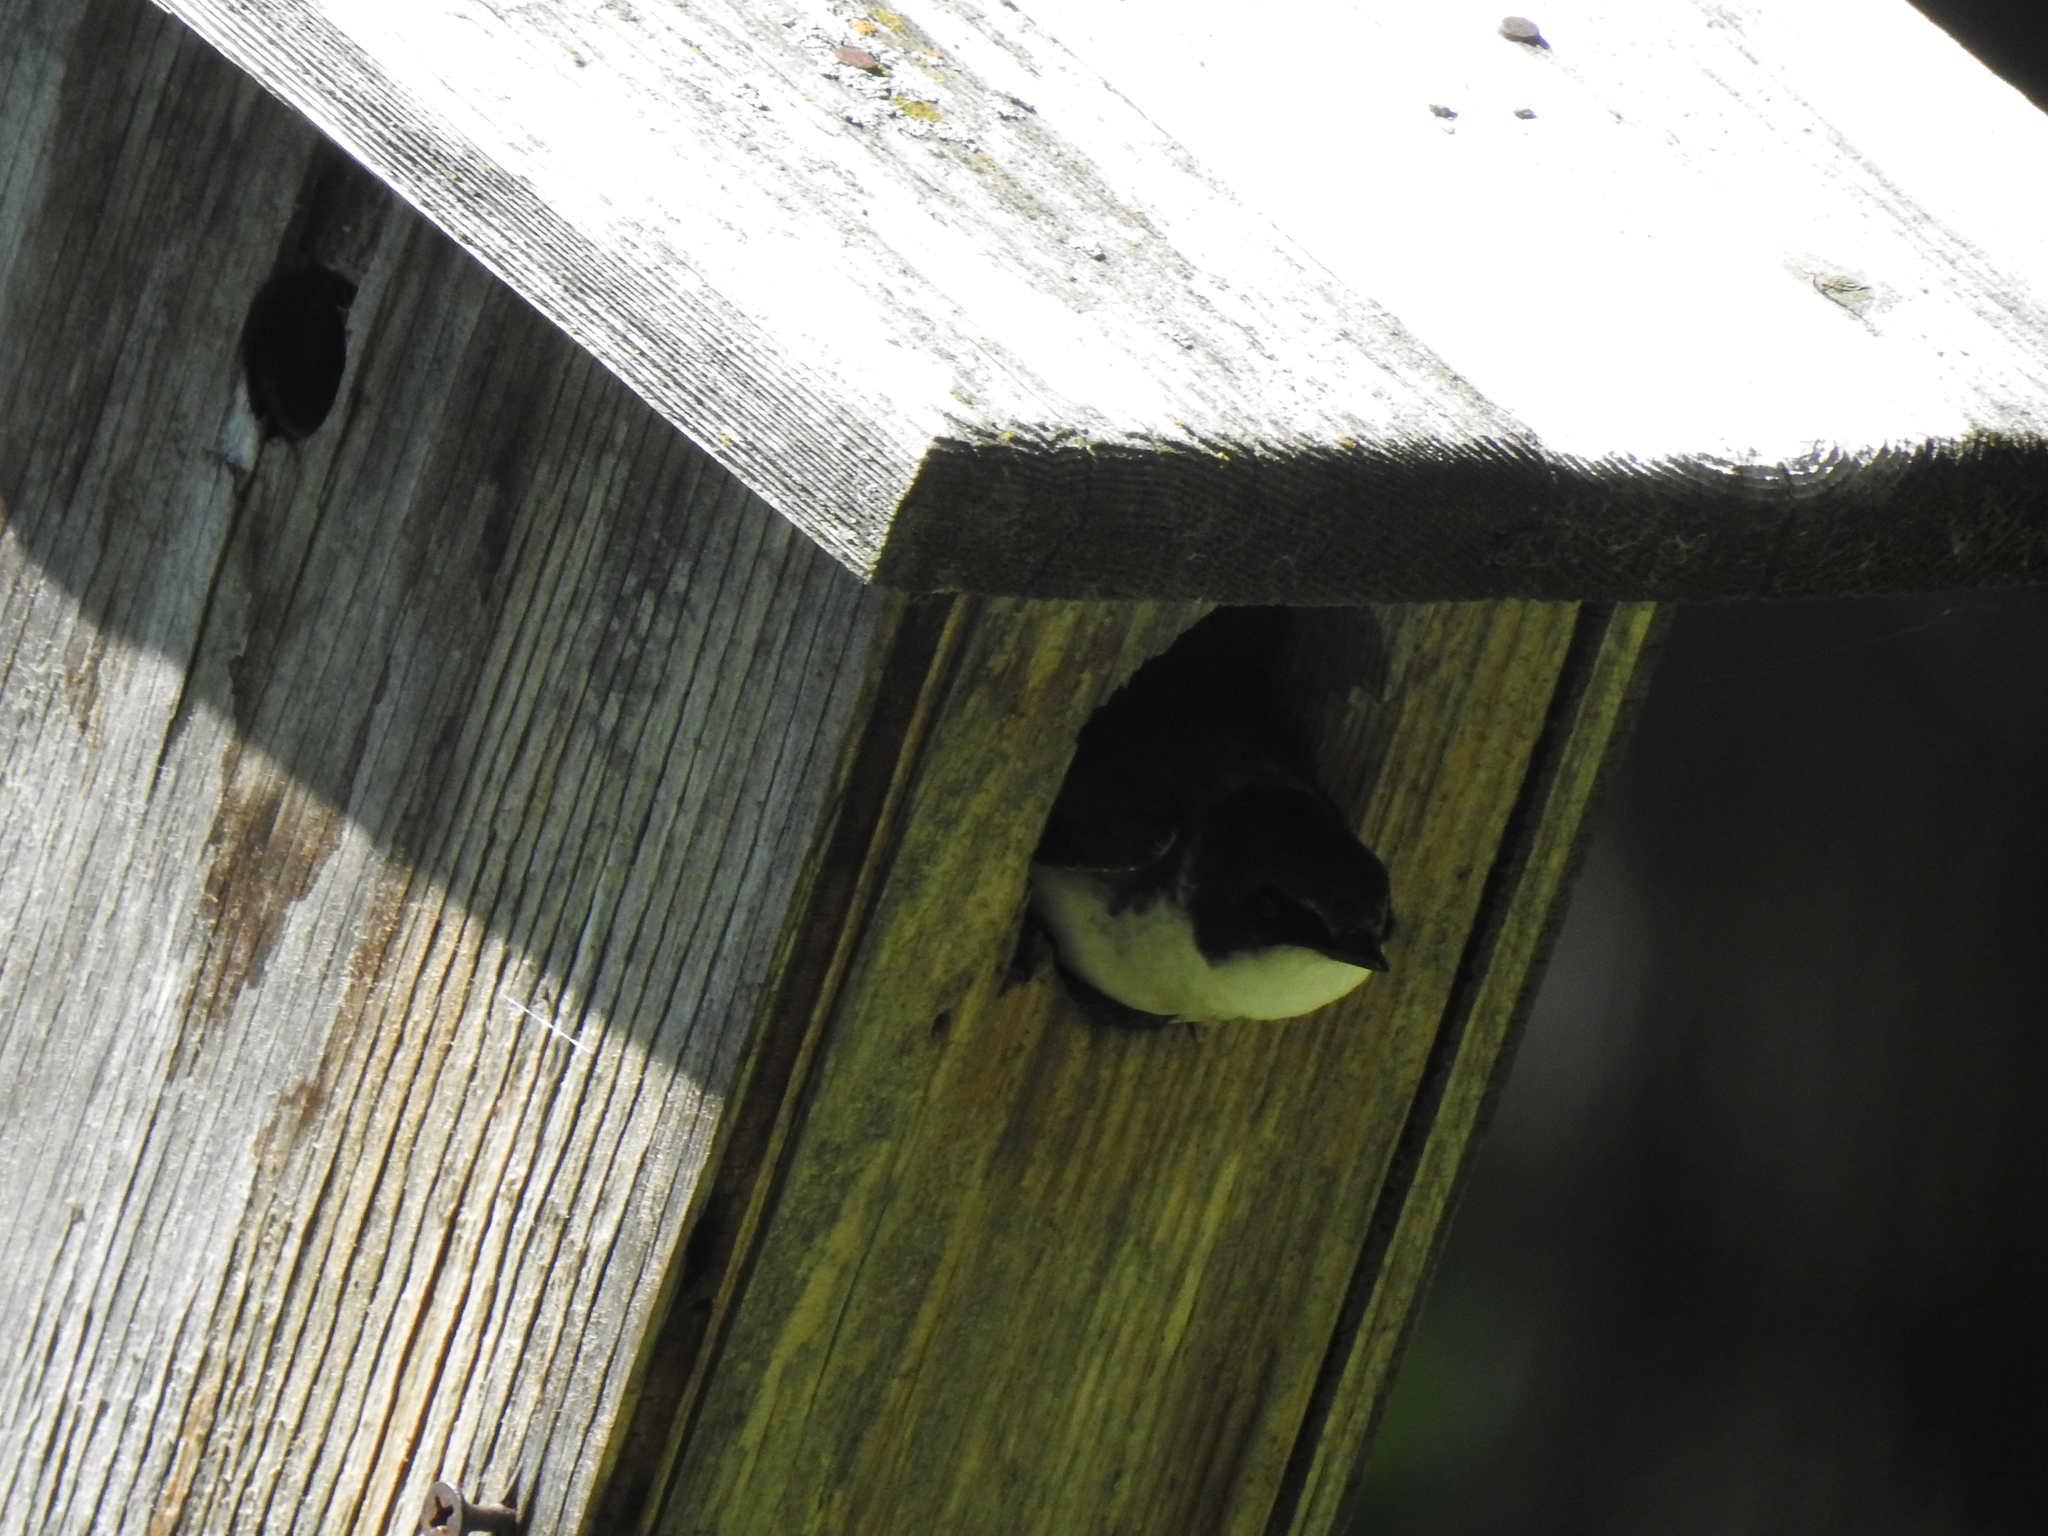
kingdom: Animalia
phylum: Chordata
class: Aves
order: Passeriformes
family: Hirundinidae
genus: Tachycineta
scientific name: Tachycineta bicolor
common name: Tree swallow
